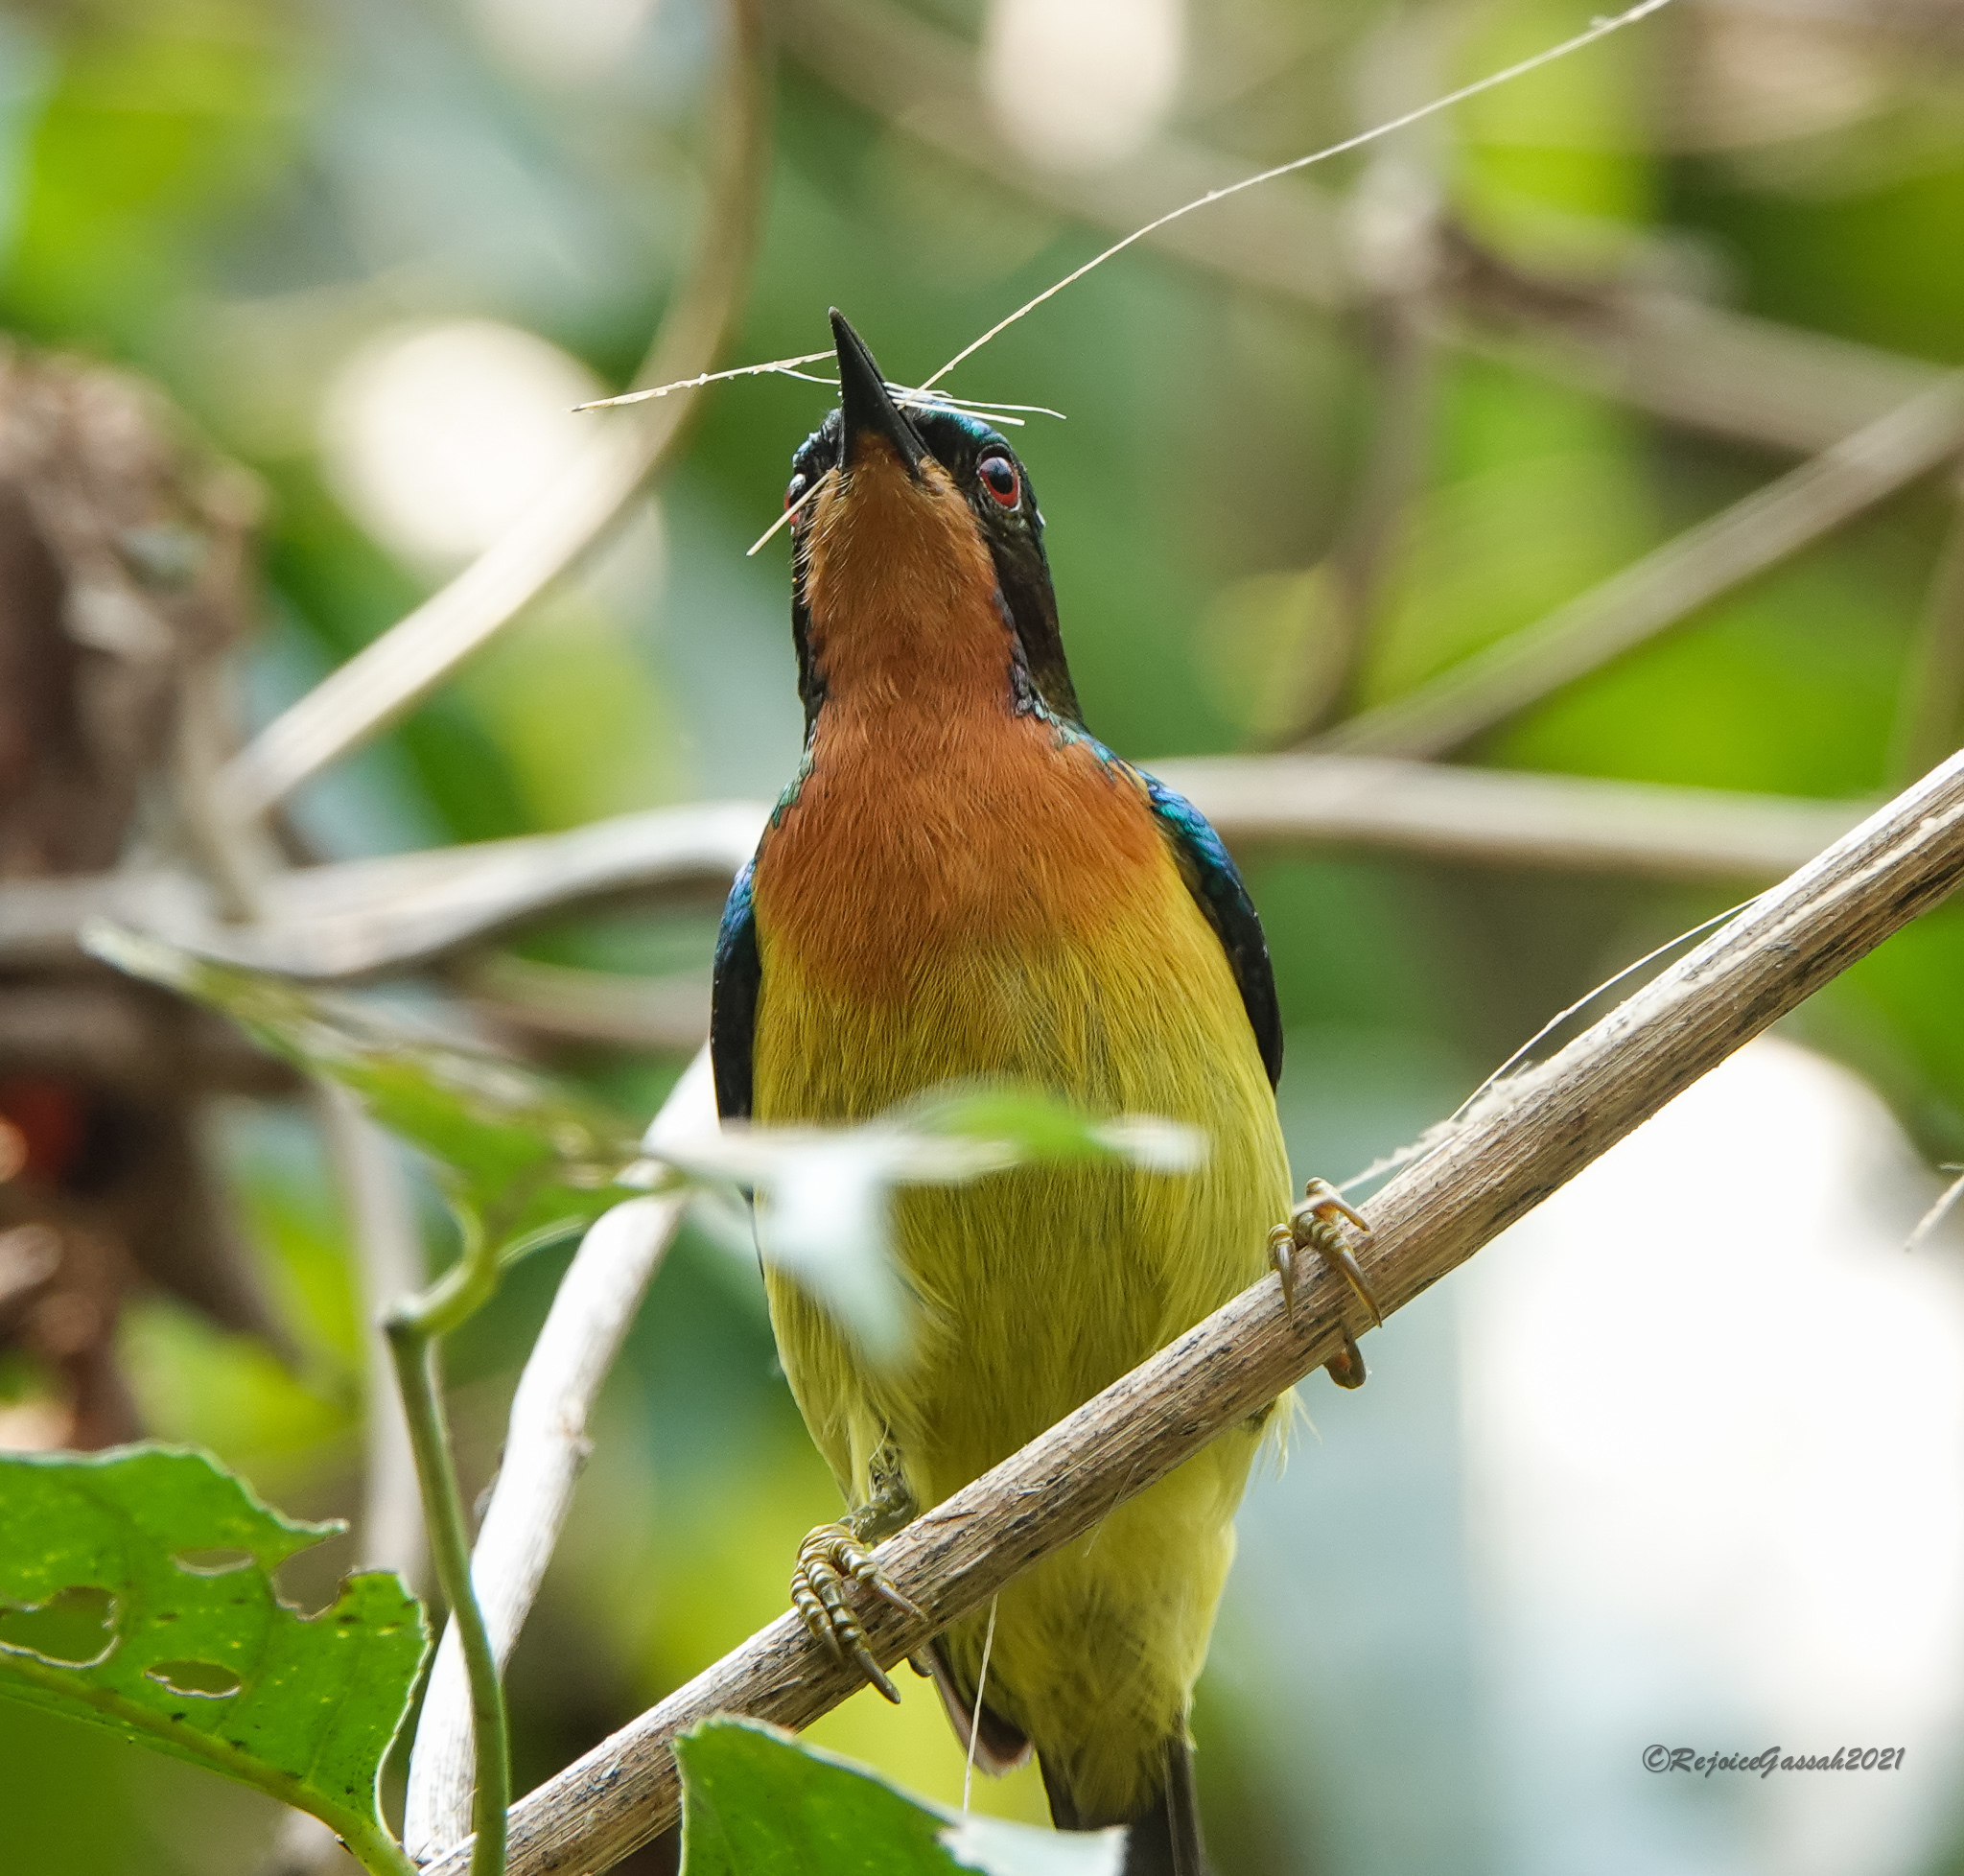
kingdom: Animalia
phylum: Chordata
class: Aves
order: Passeriformes
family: Nectariniidae
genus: Chalcoparia
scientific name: Chalcoparia singalensis
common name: Ruby-cheeked sunbird
